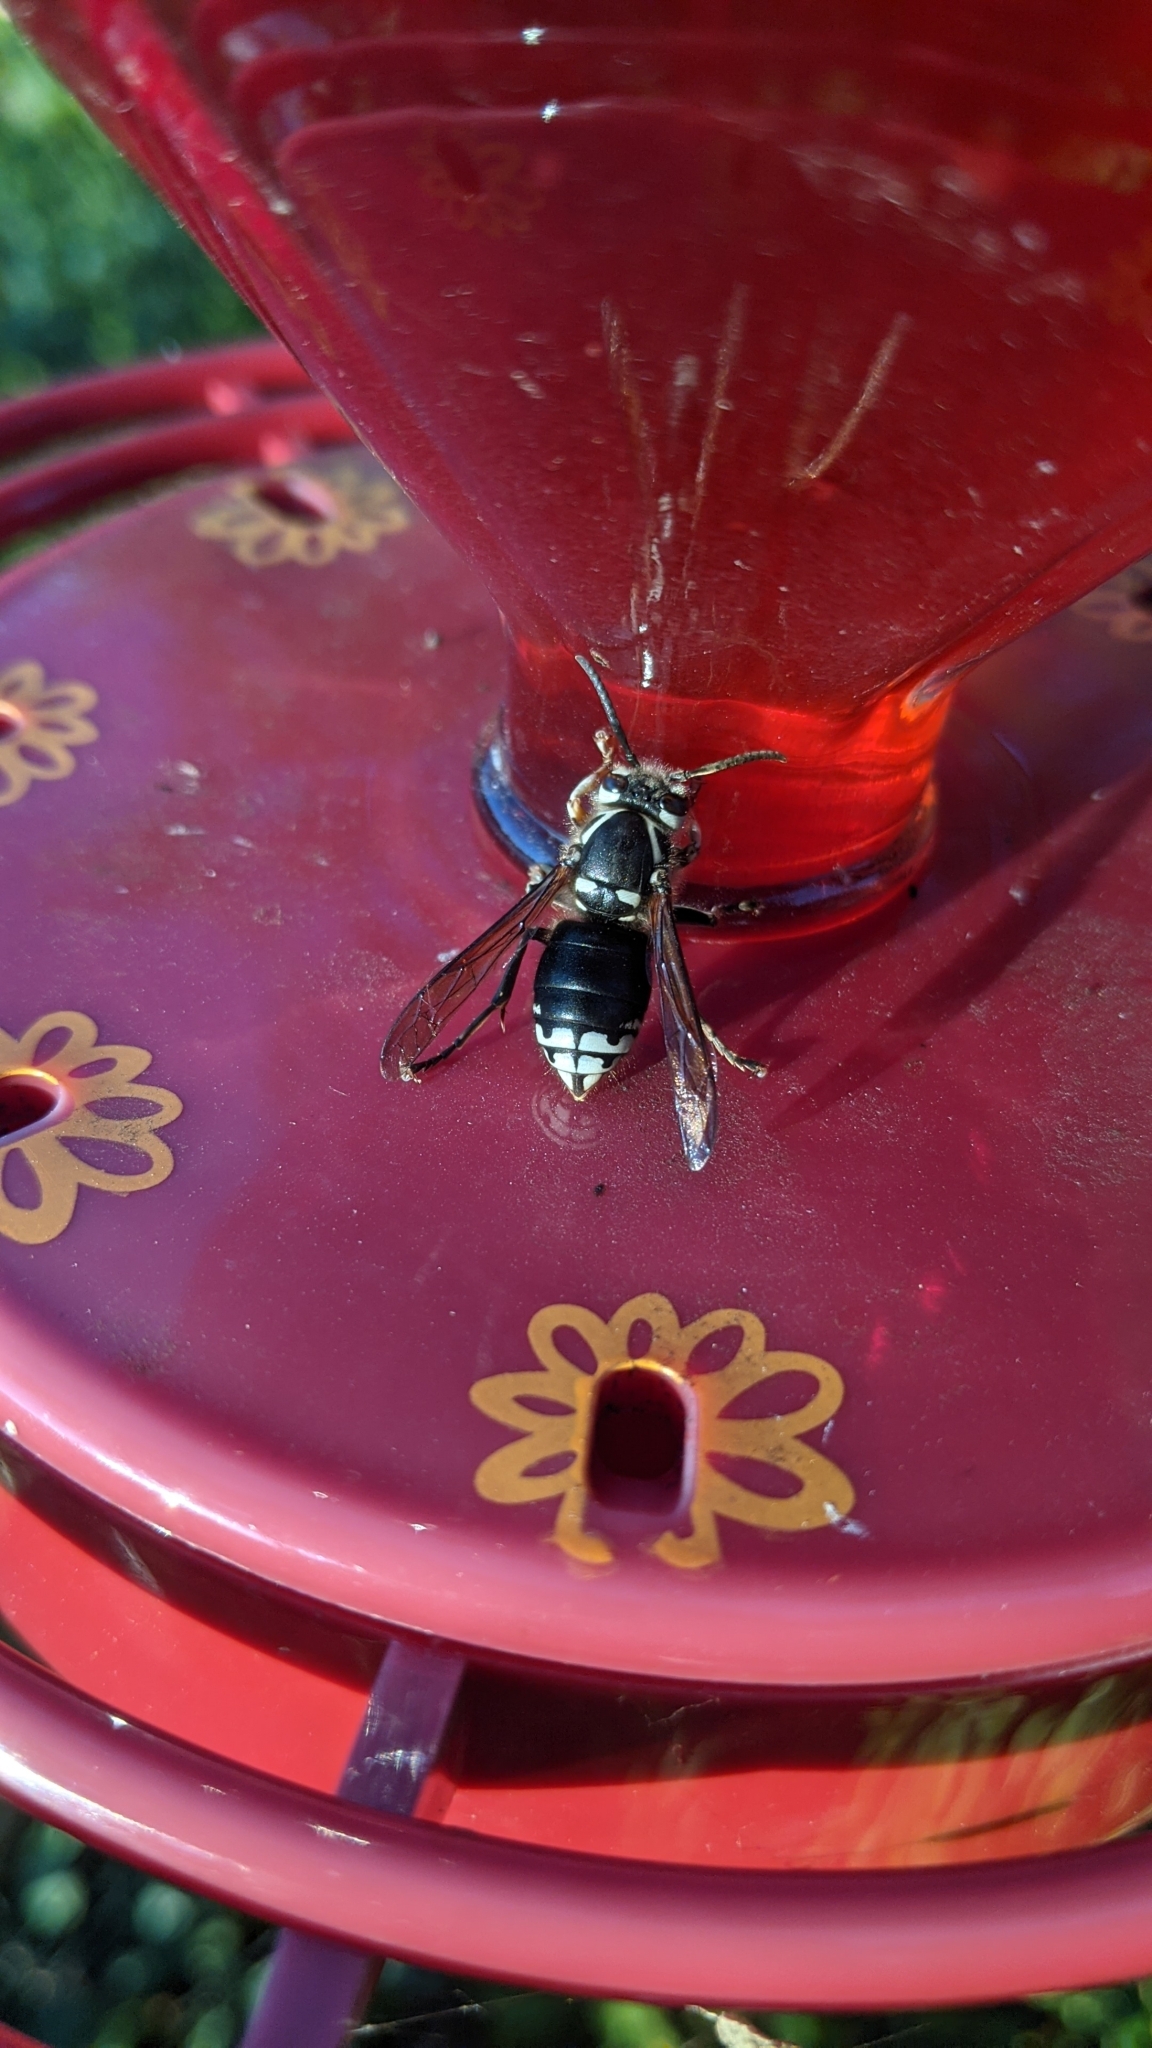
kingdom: Animalia
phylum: Arthropoda
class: Insecta
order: Hymenoptera
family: Vespidae
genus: Dolichovespula
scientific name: Dolichovespula maculata
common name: Bald-faced hornet
